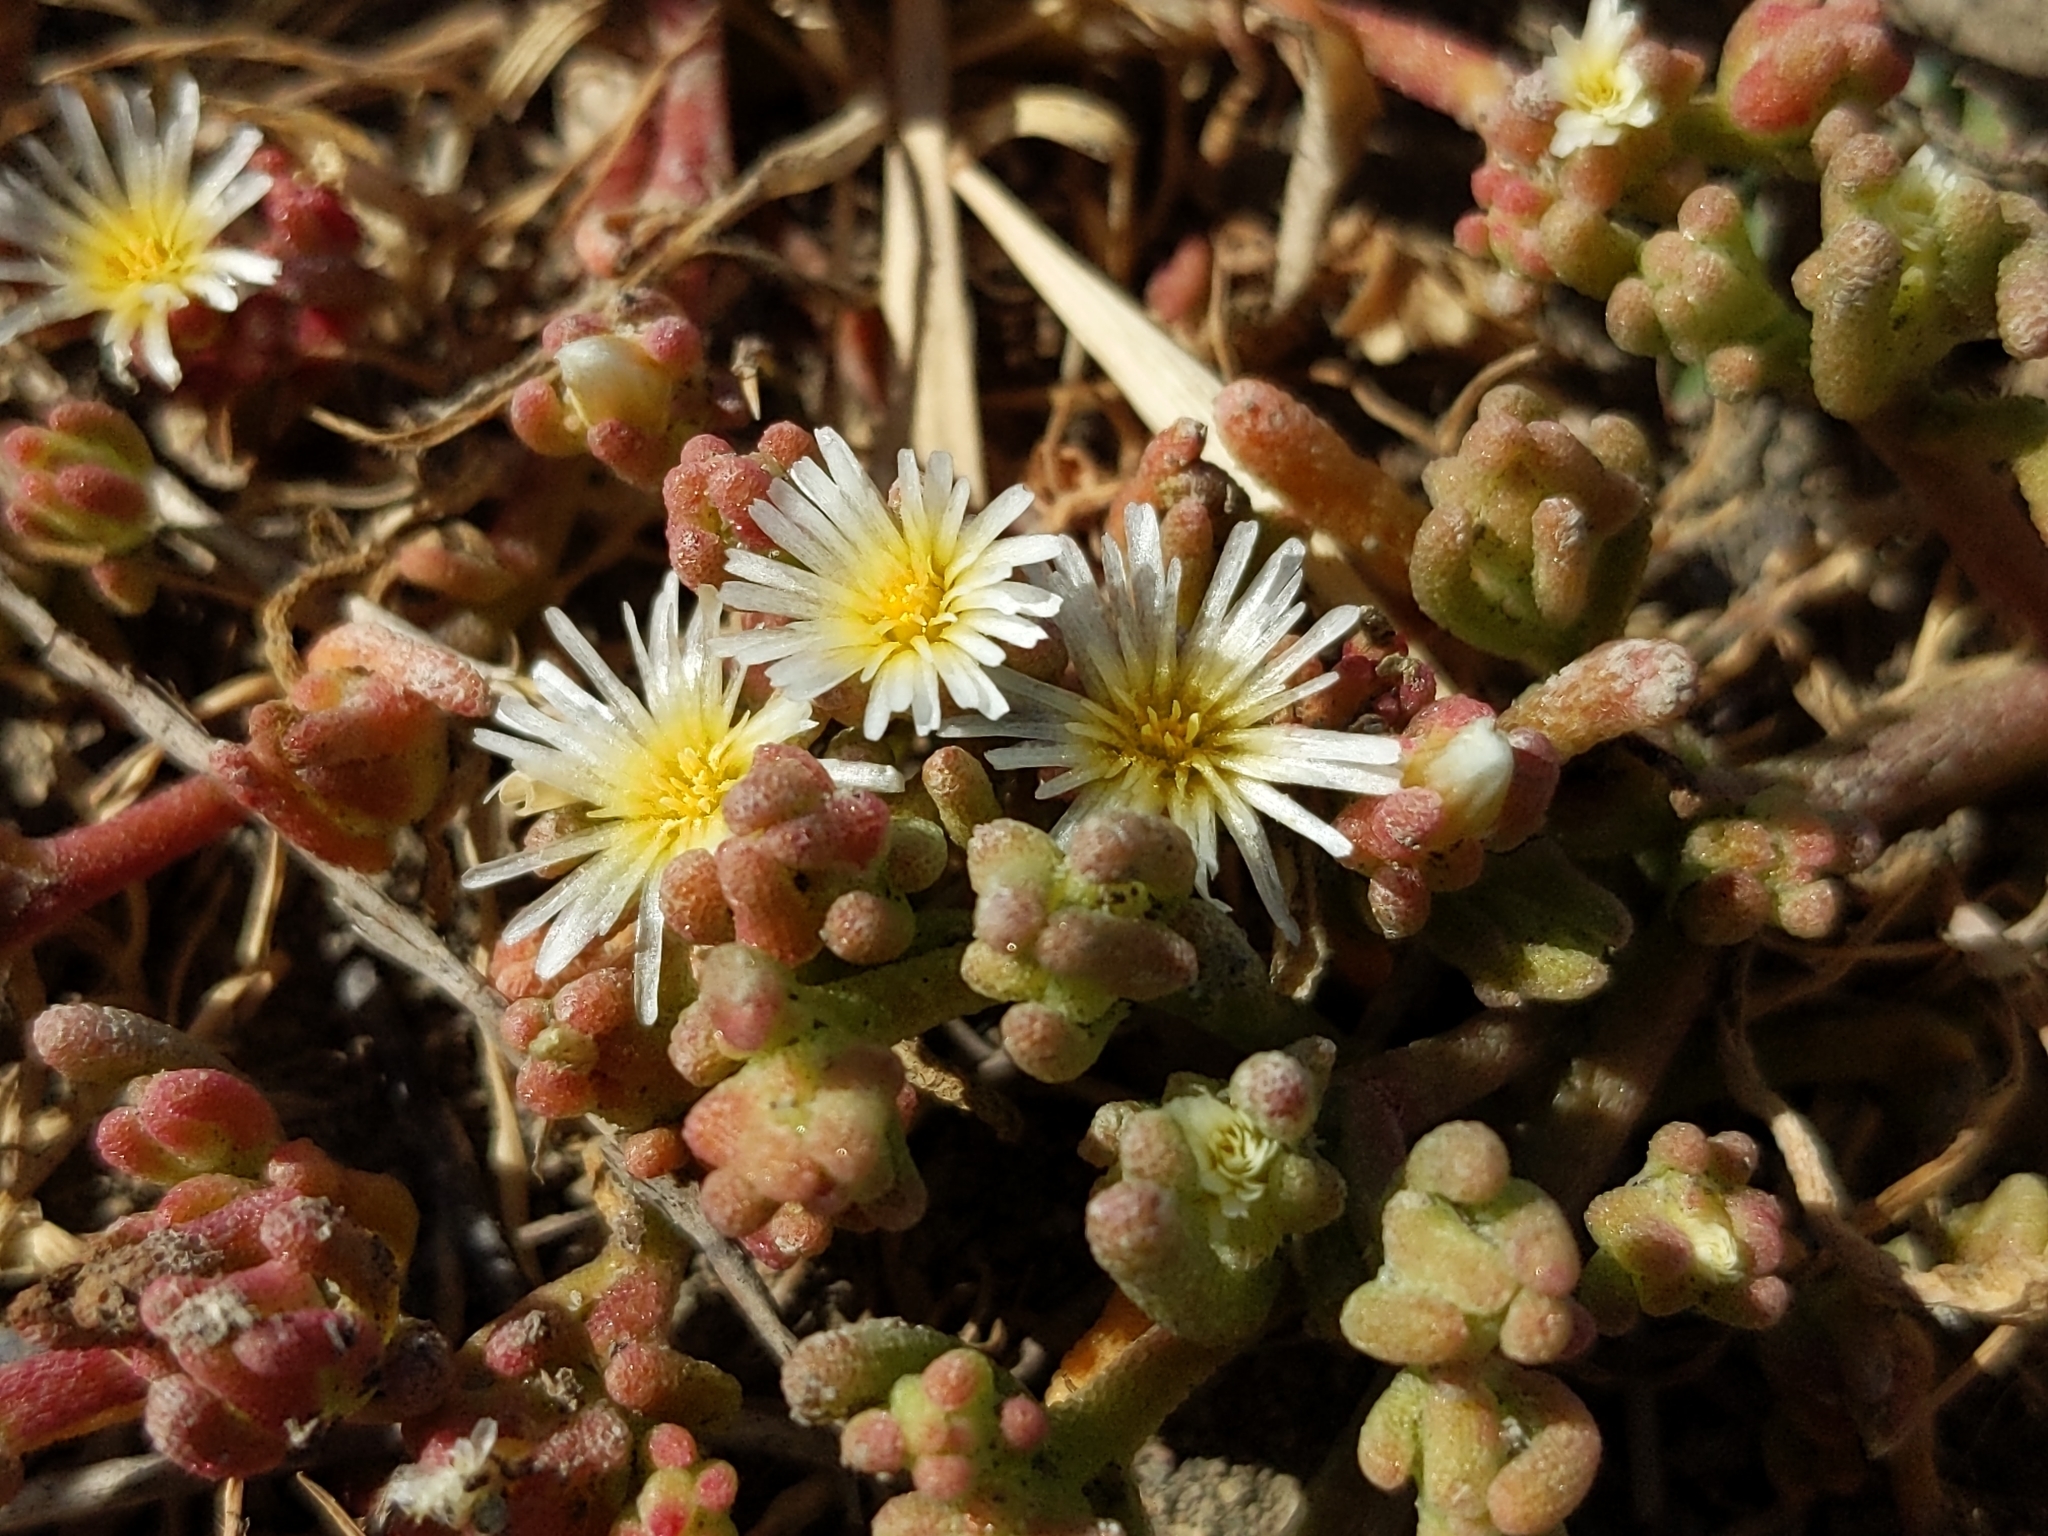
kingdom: Plantae
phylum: Tracheophyta
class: Magnoliopsida
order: Caryophyllales
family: Aizoaceae
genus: Mesembryanthemum
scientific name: Mesembryanthemum nodiflorum
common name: Slenderleaf iceplant
